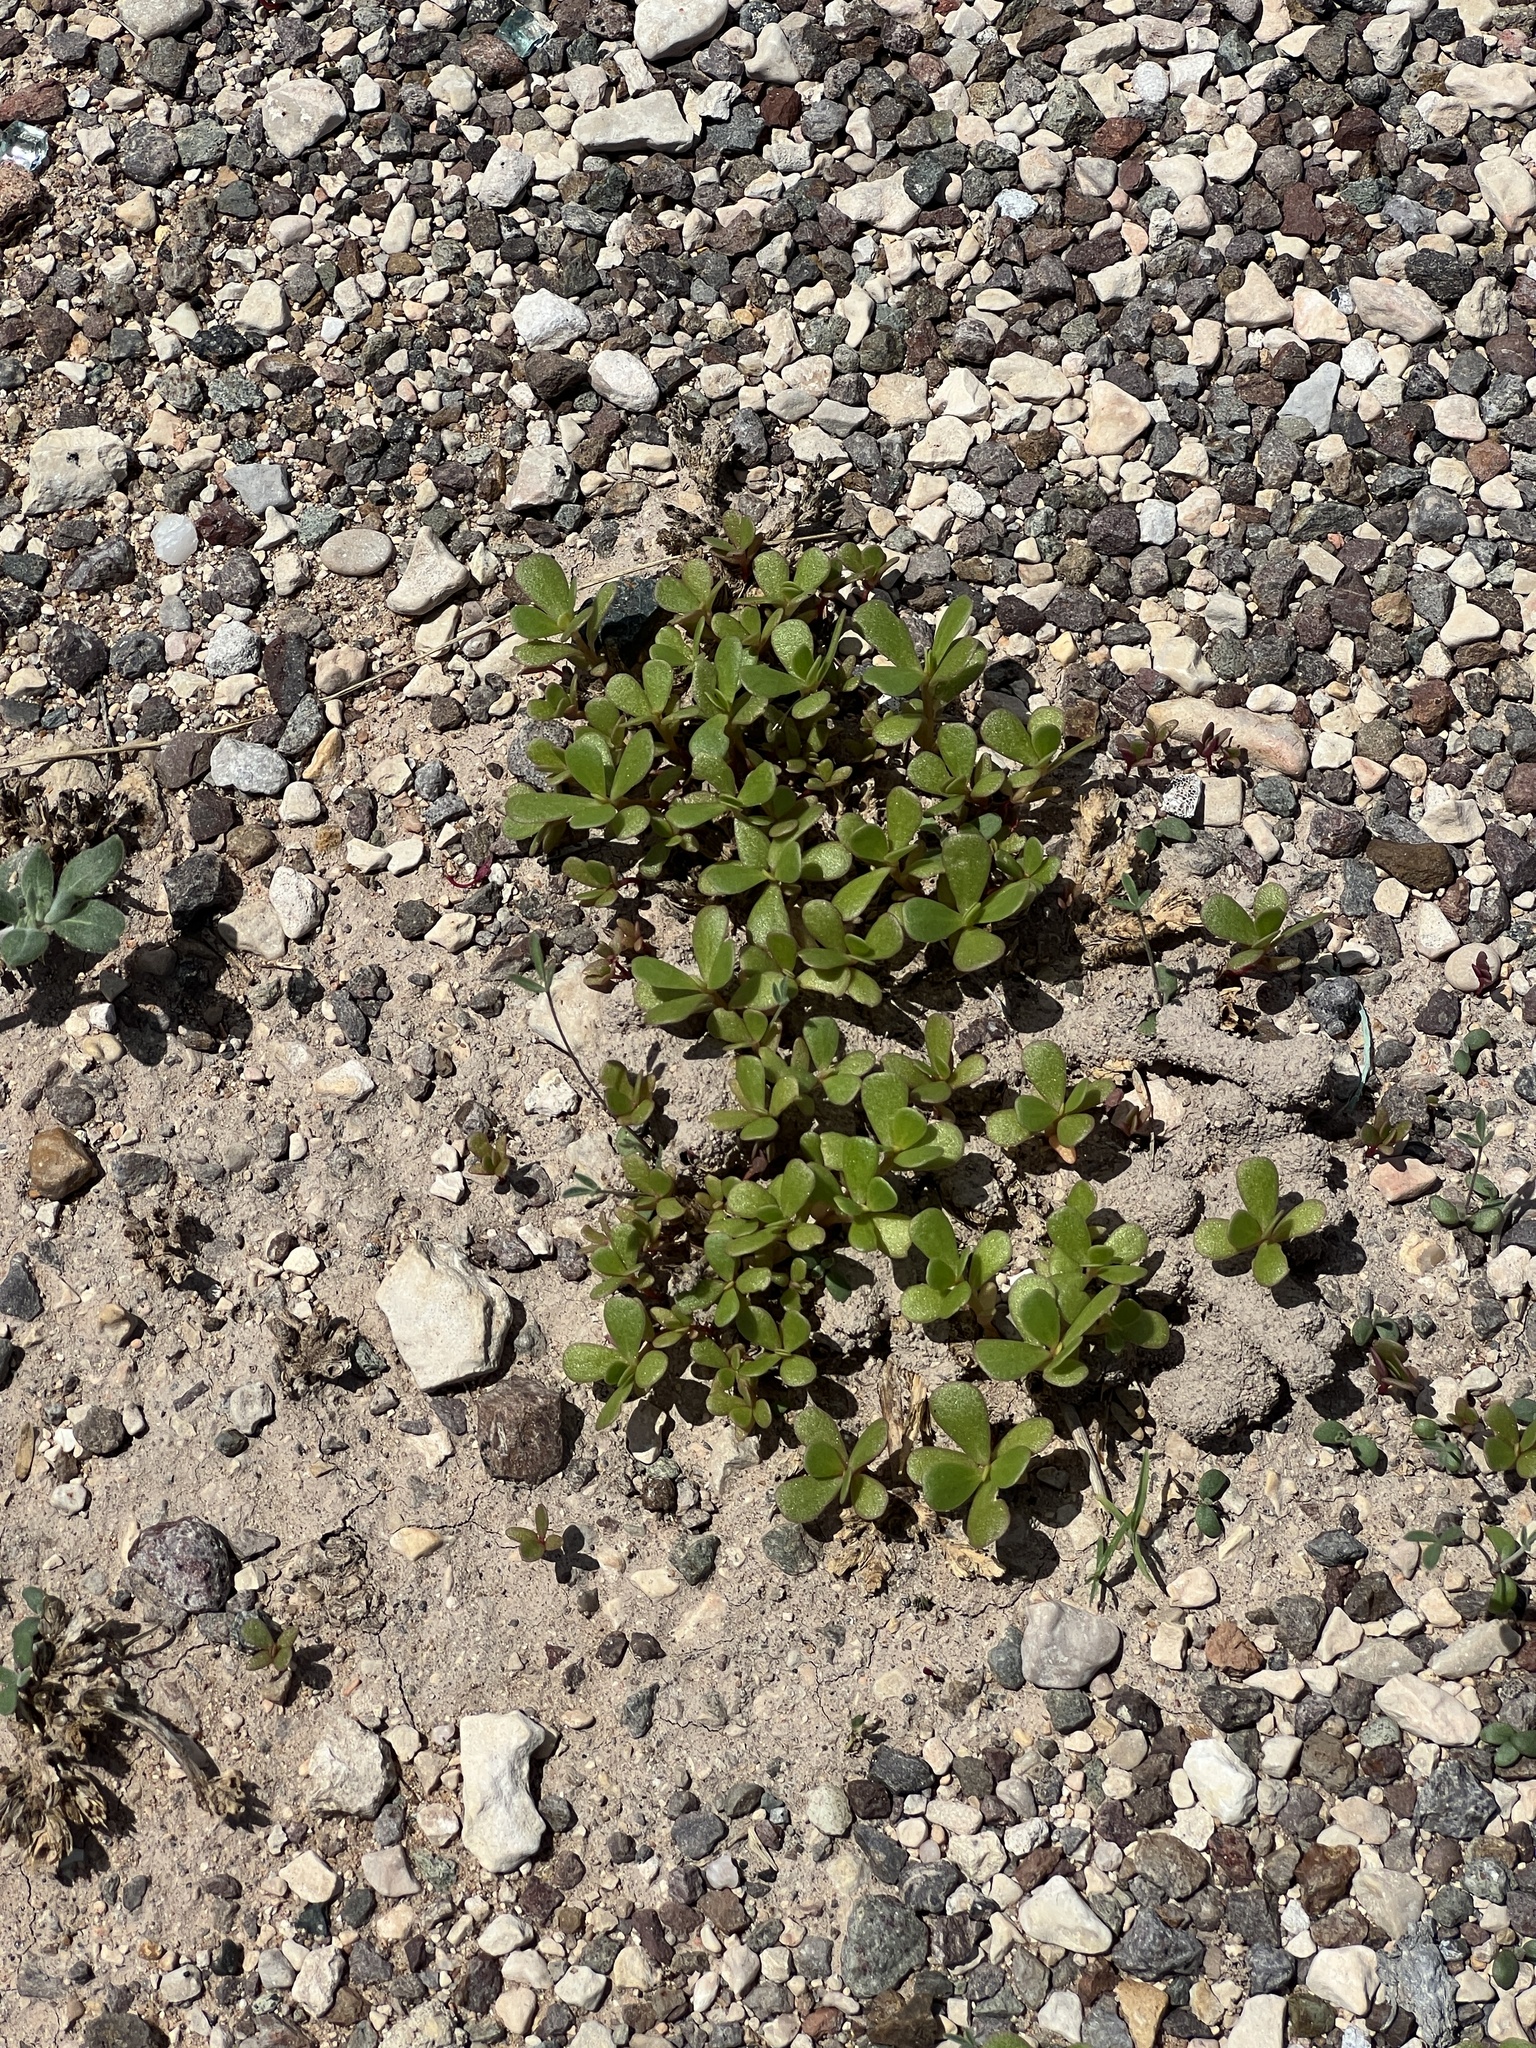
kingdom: Plantae
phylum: Tracheophyta
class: Magnoliopsida
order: Caryophyllales
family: Portulacaceae
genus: Portulaca
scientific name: Portulaca oleracea
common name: Common purslane
